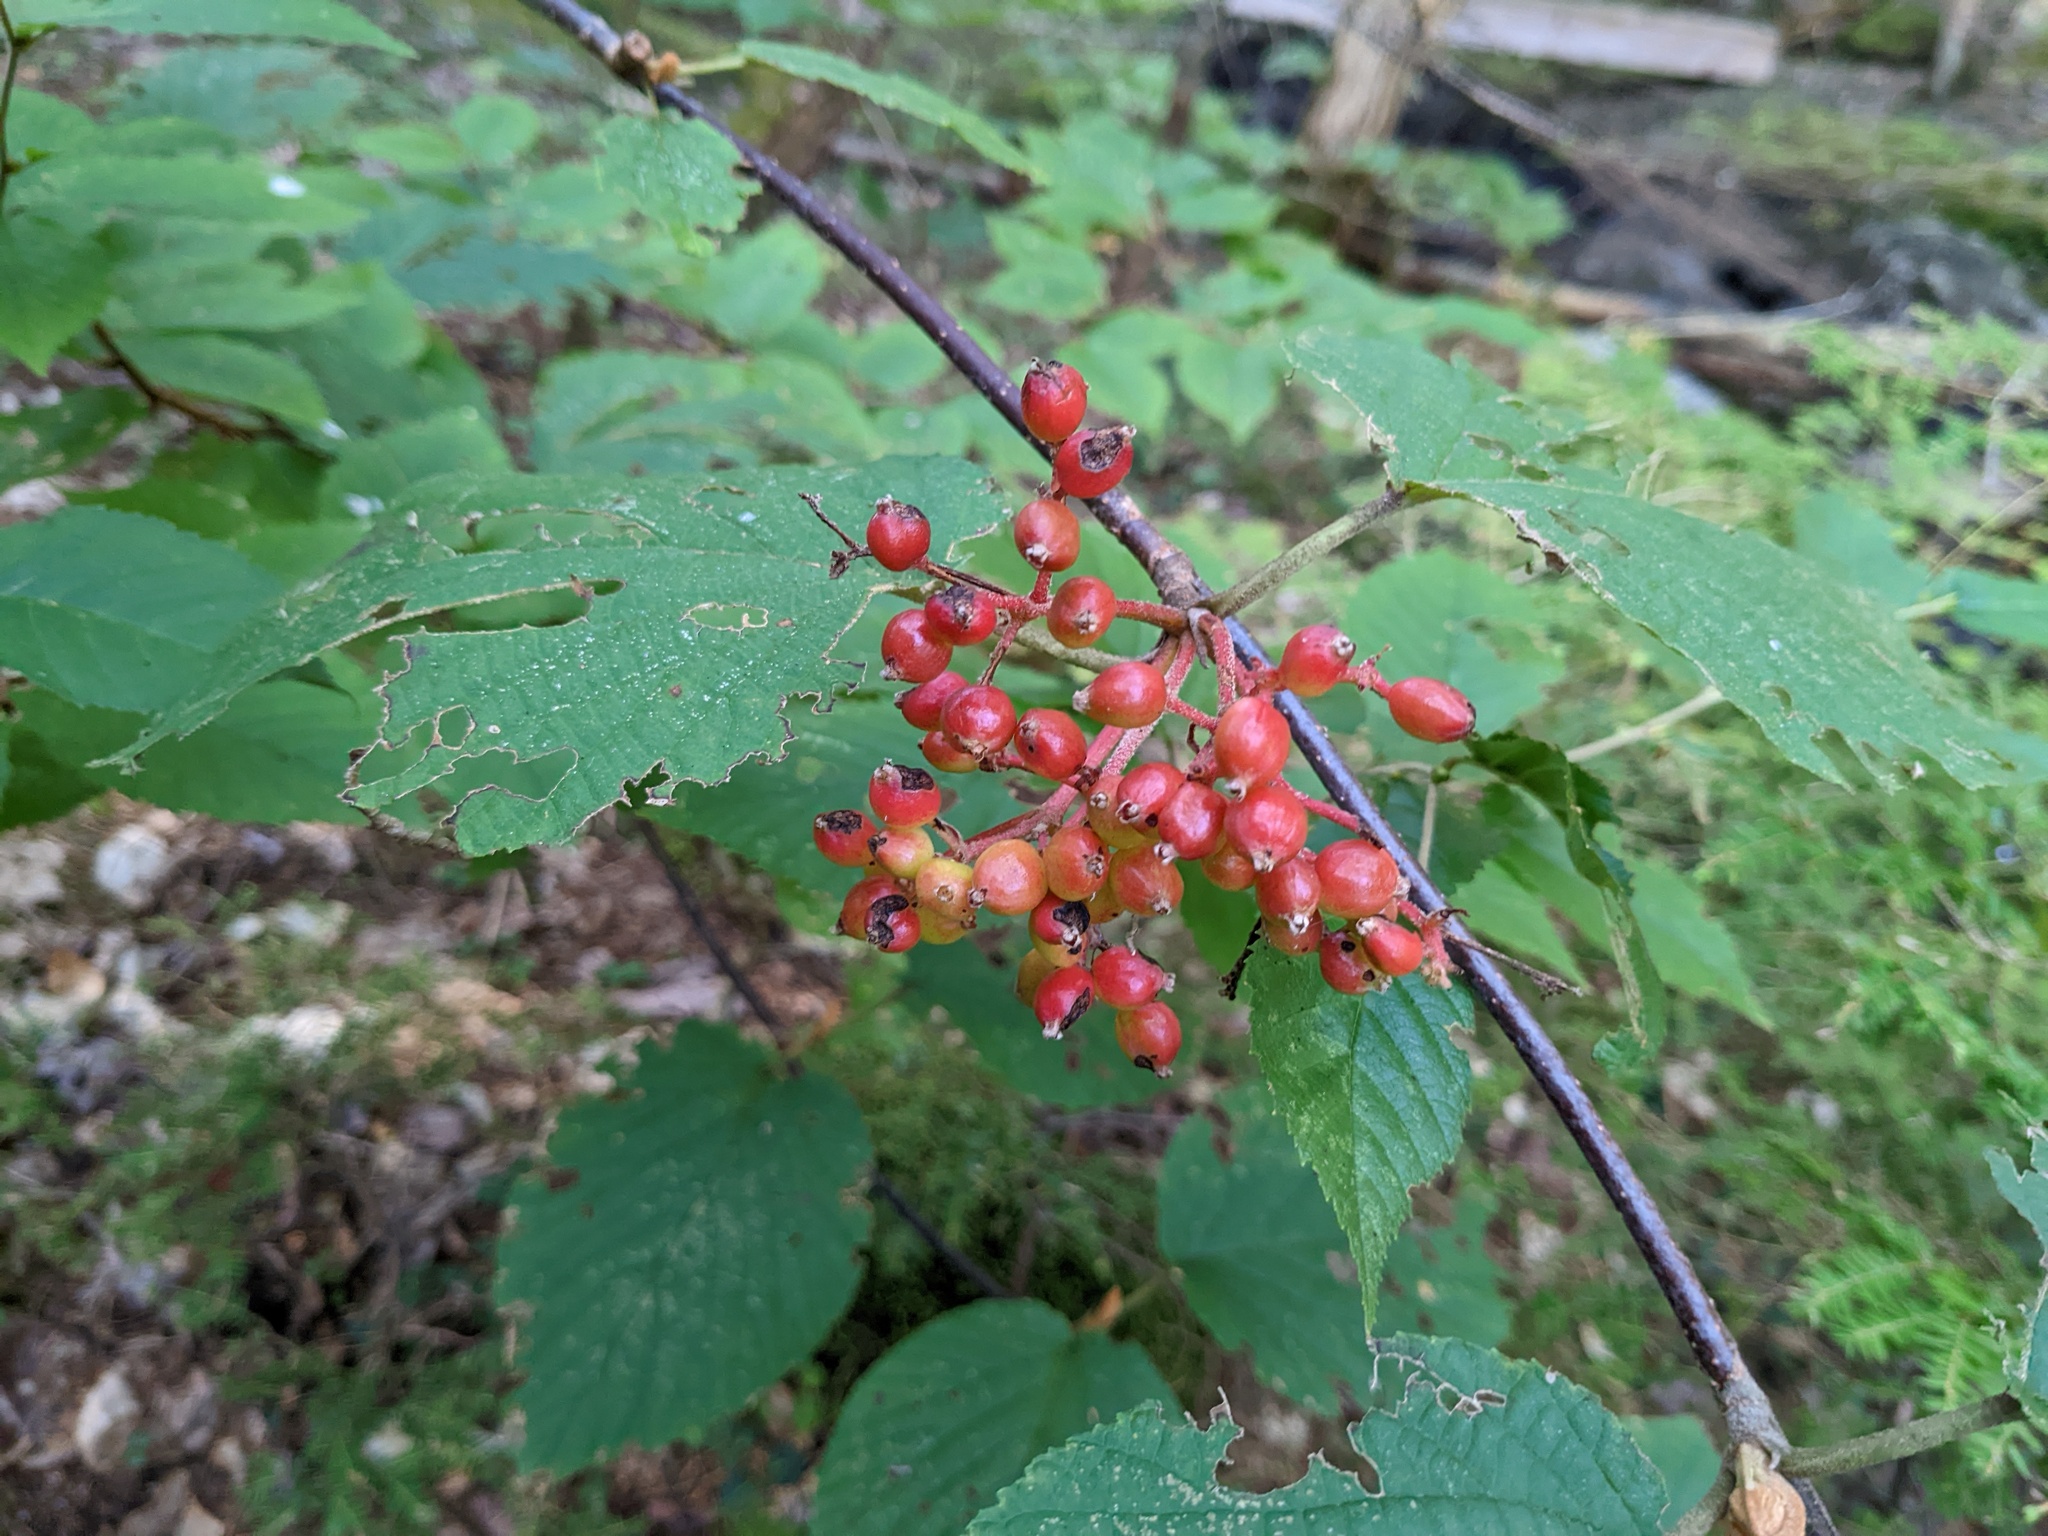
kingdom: Plantae
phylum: Tracheophyta
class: Magnoliopsida
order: Dipsacales
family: Viburnaceae
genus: Viburnum
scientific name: Viburnum lantanoides
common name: Hobblebush
